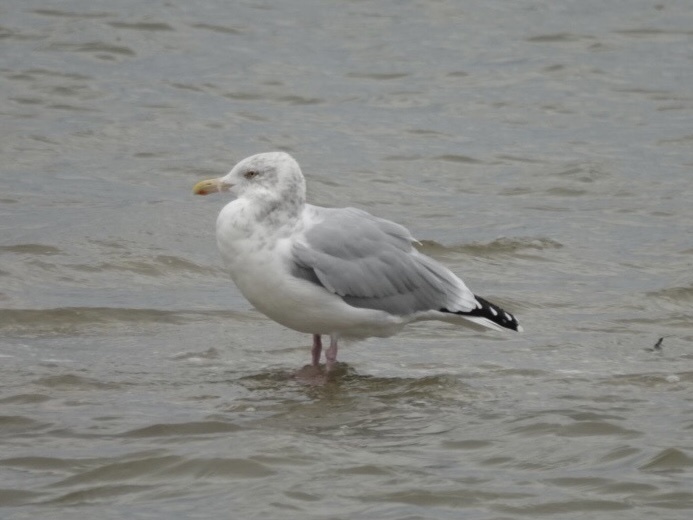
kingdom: Animalia
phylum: Chordata
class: Aves
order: Charadriiformes
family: Laridae
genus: Larus
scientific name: Larus argentatus
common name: Herring gull
